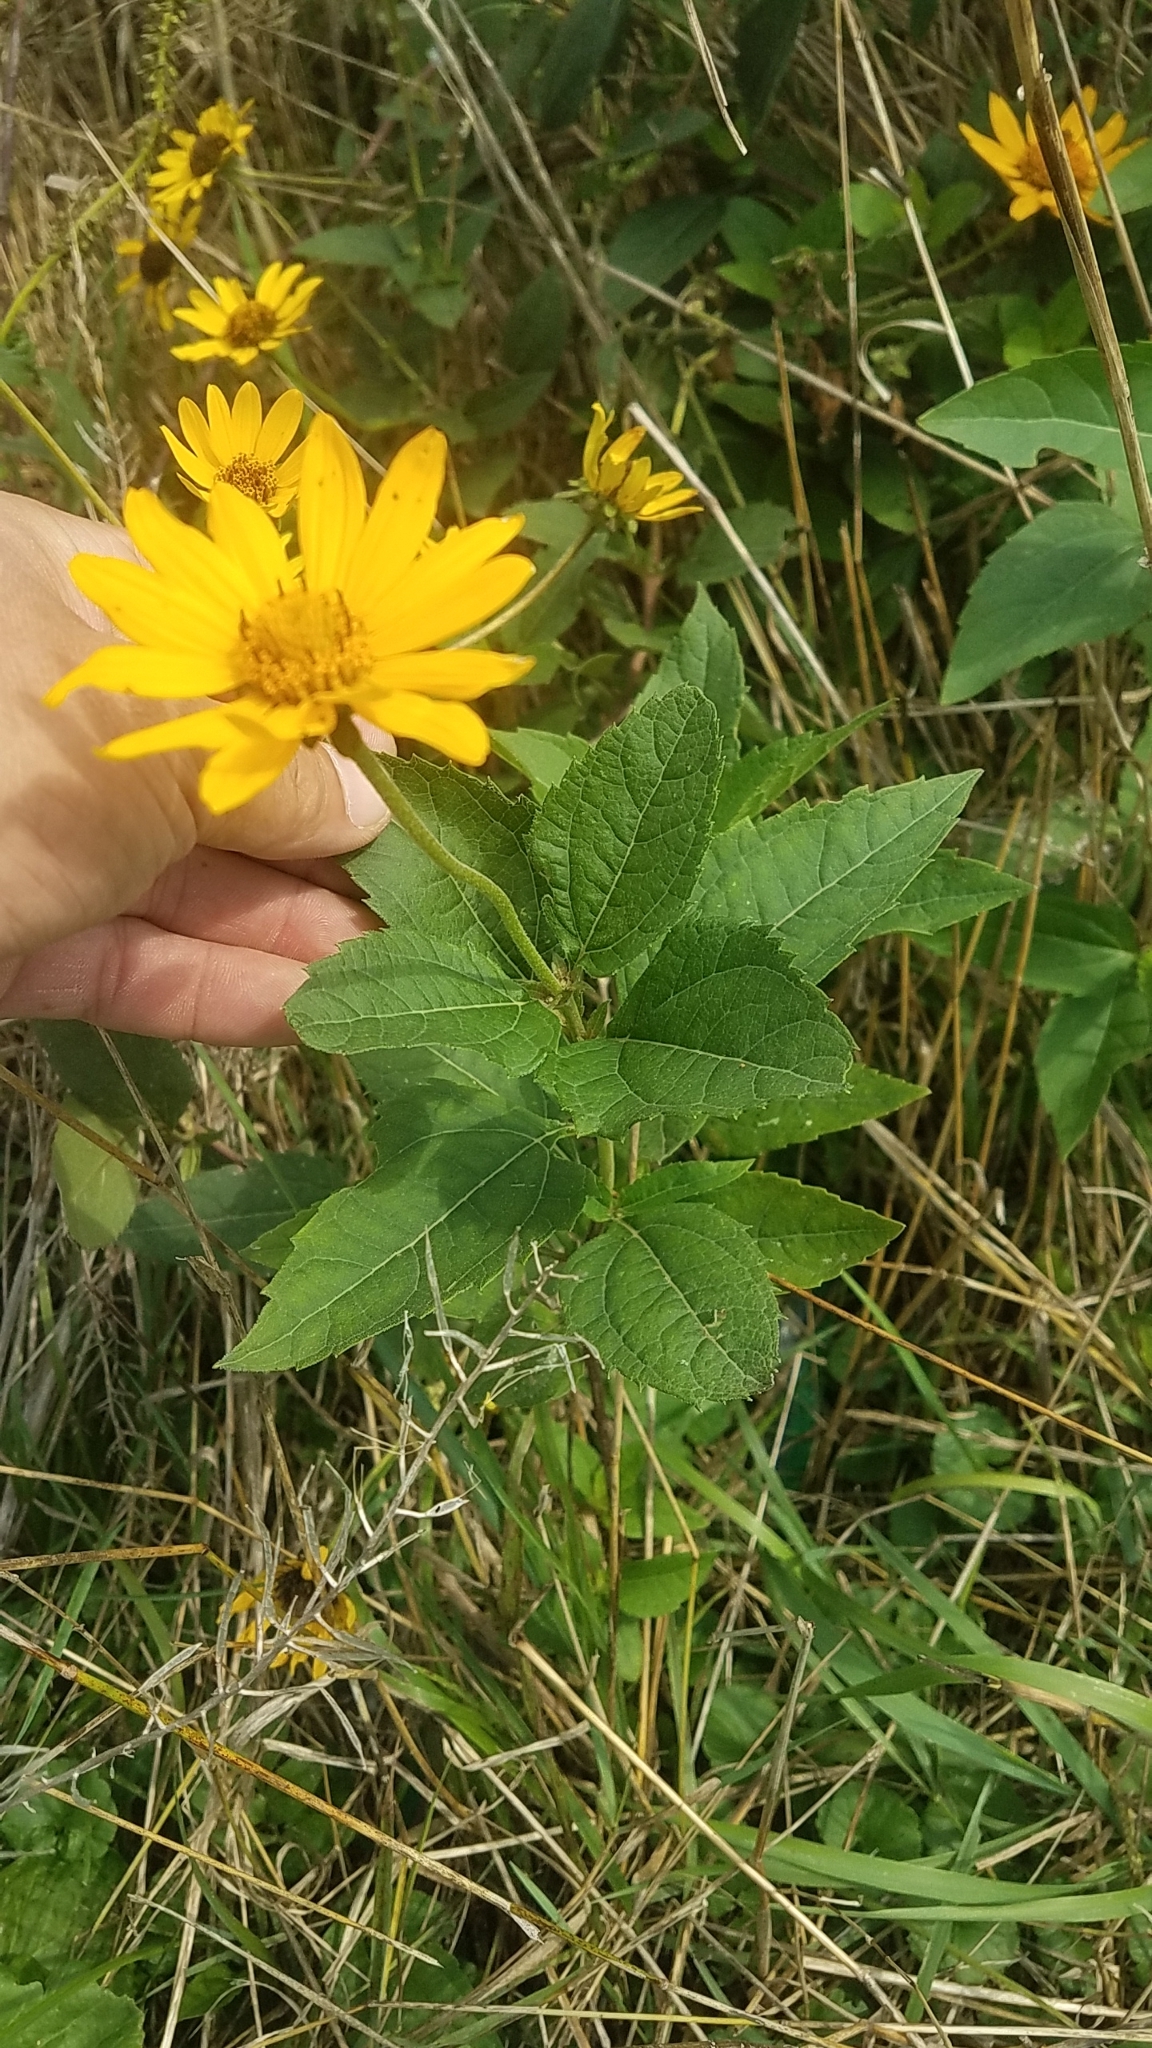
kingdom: Plantae
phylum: Tracheophyta
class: Magnoliopsida
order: Asterales
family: Asteraceae
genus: Heliopsis
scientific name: Heliopsis helianthoides
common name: False sunflower
